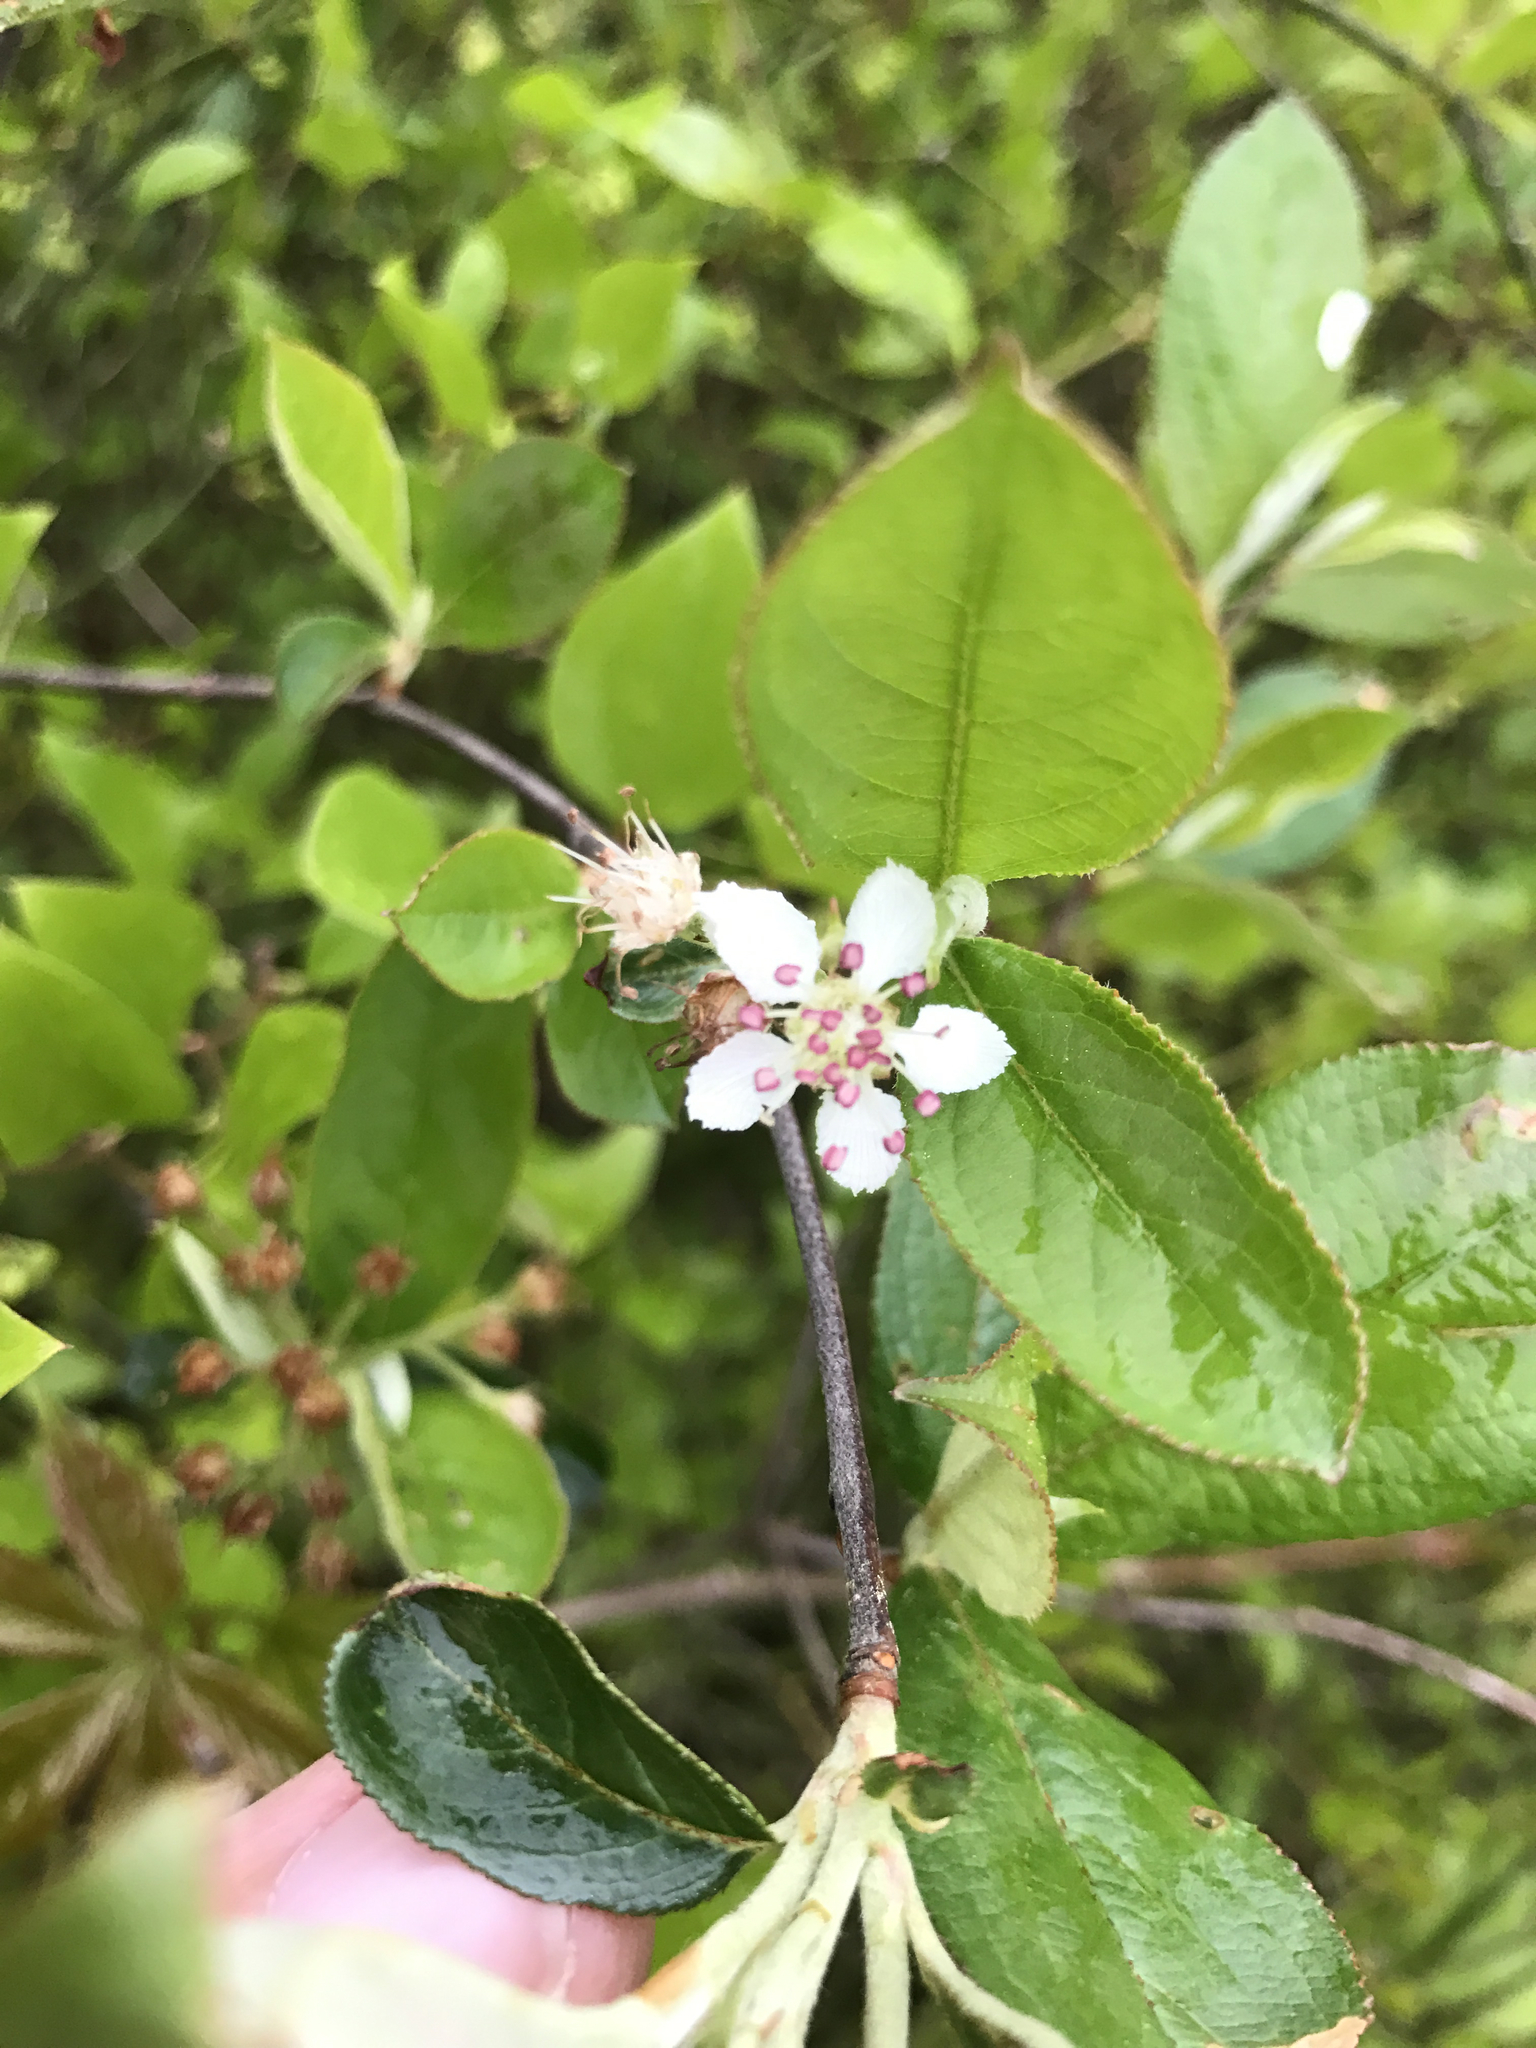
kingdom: Plantae
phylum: Tracheophyta
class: Magnoliopsida
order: Rosales
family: Rosaceae
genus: Aronia
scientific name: Aronia arbutifolia
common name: Red chokeberry
